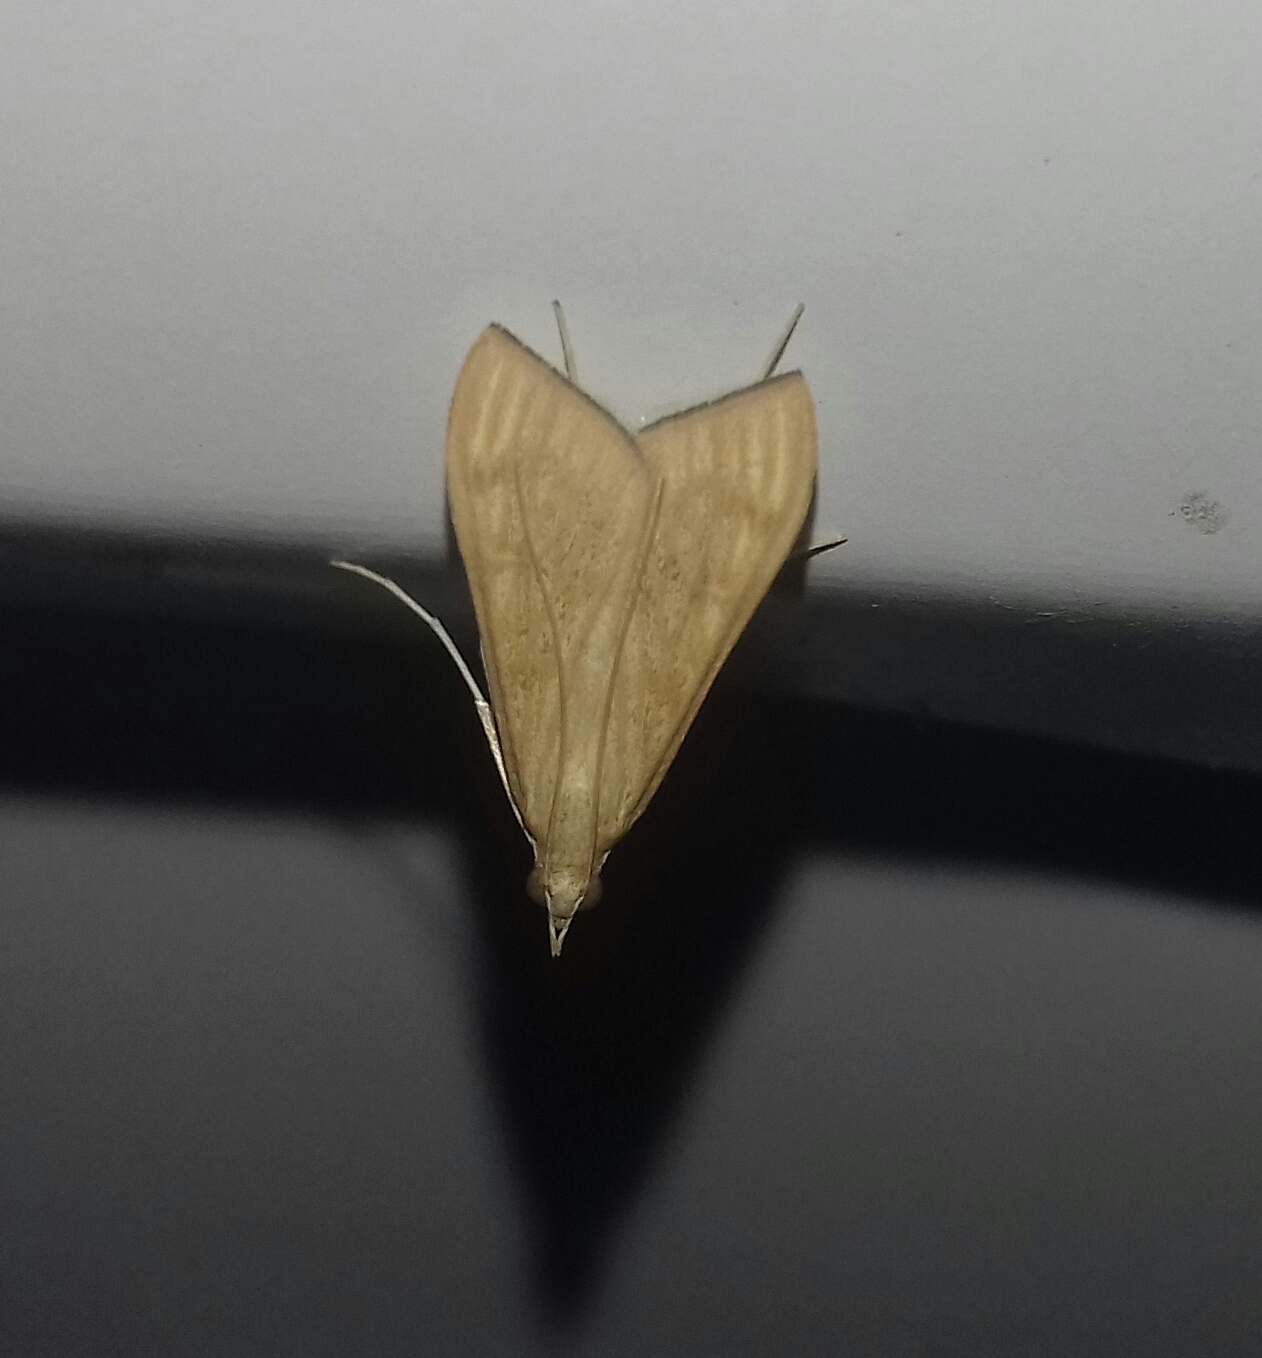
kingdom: Animalia
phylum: Arthropoda
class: Insecta
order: Lepidoptera
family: Crambidae
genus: Antigastra
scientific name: Antigastra catalaunalis
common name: Spanish dot
